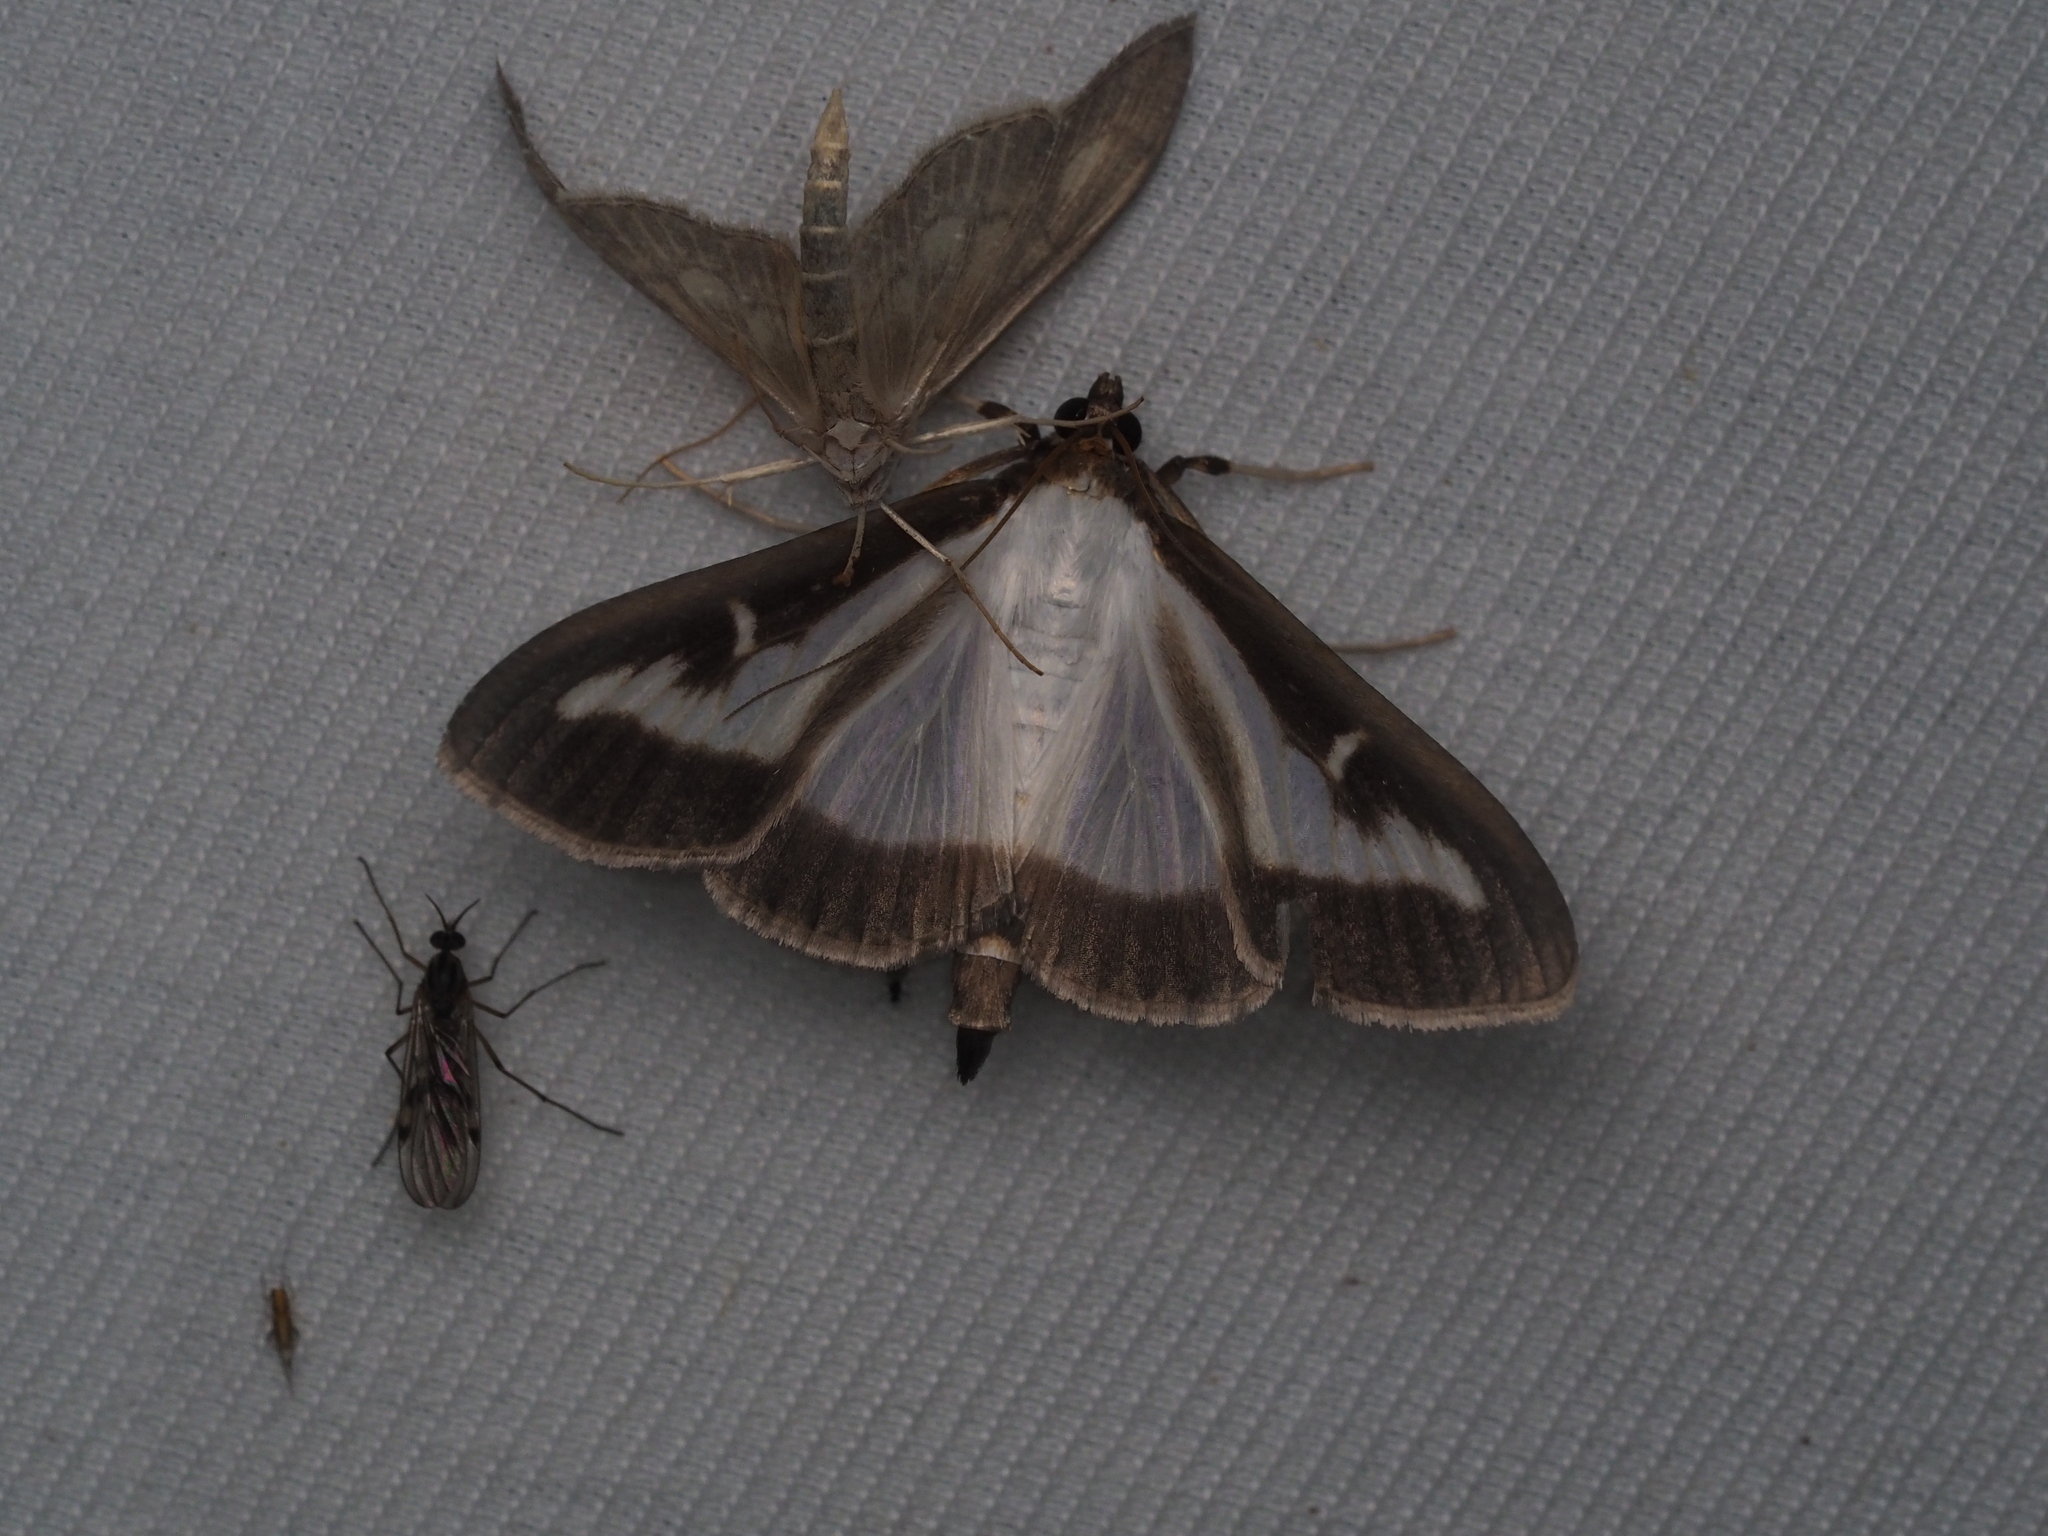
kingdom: Animalia
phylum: Arthropoda
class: Insecta
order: Lepidoptera
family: Crambidae
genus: Cydalima
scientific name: Cydalima perspectalis
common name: Box tree moth
